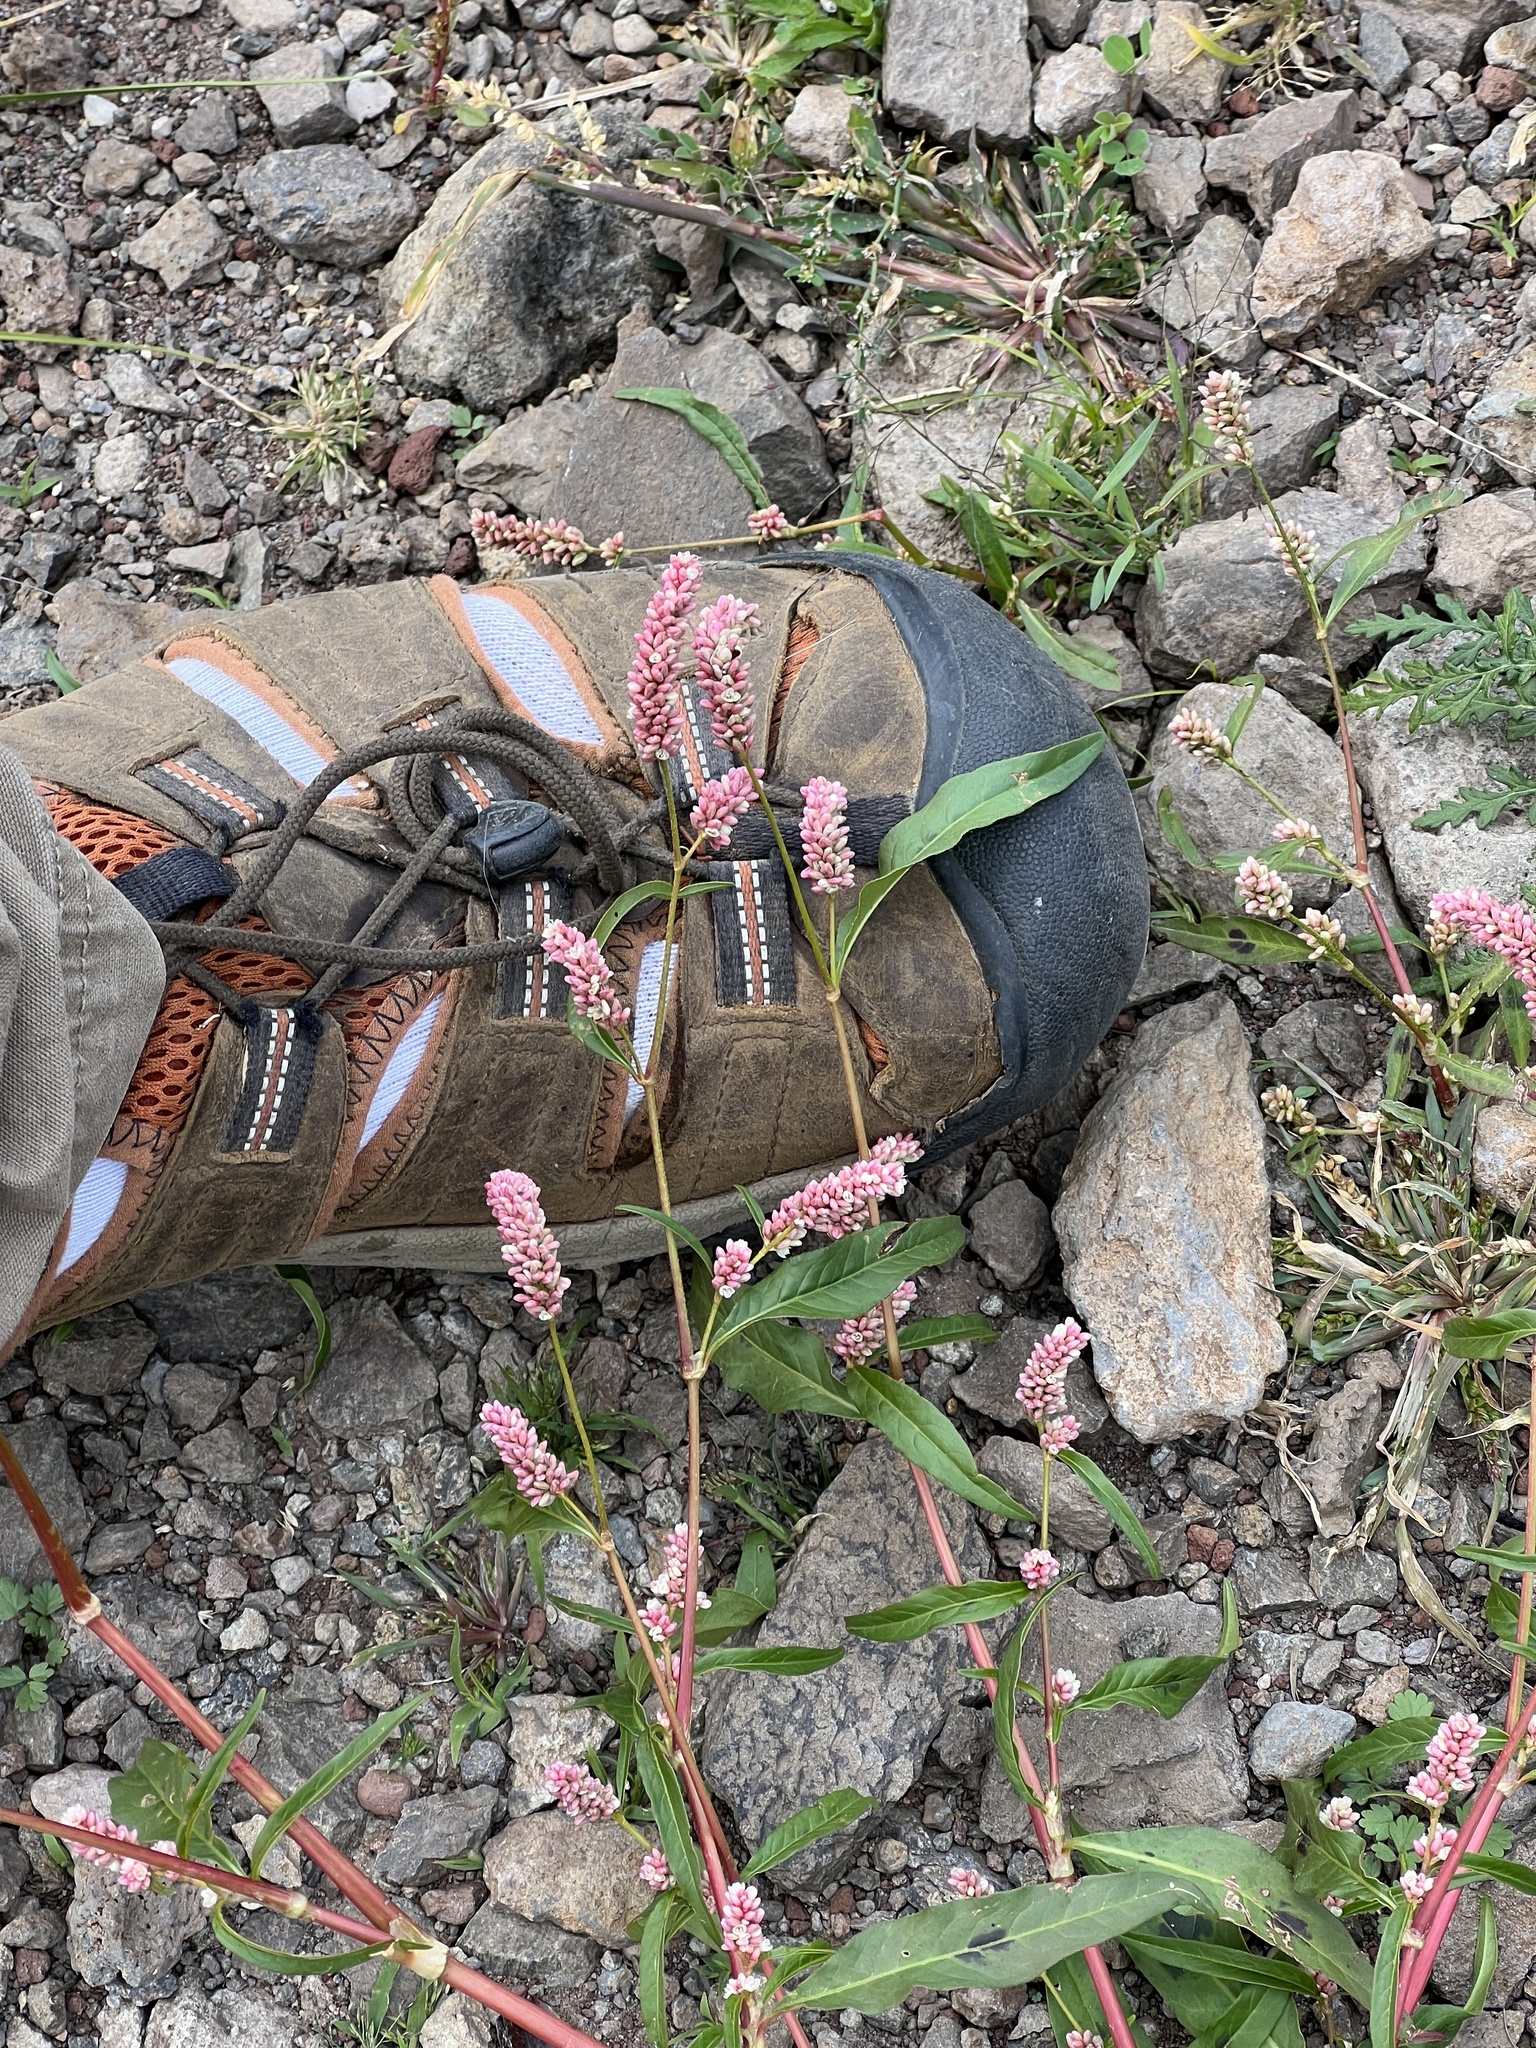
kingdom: Plantae
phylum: Tracheophyta
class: Magnoliopsida
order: Caryophyllales
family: Polygonaceae
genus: Persicaria
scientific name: Persicaria maculosa
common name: Redshank
